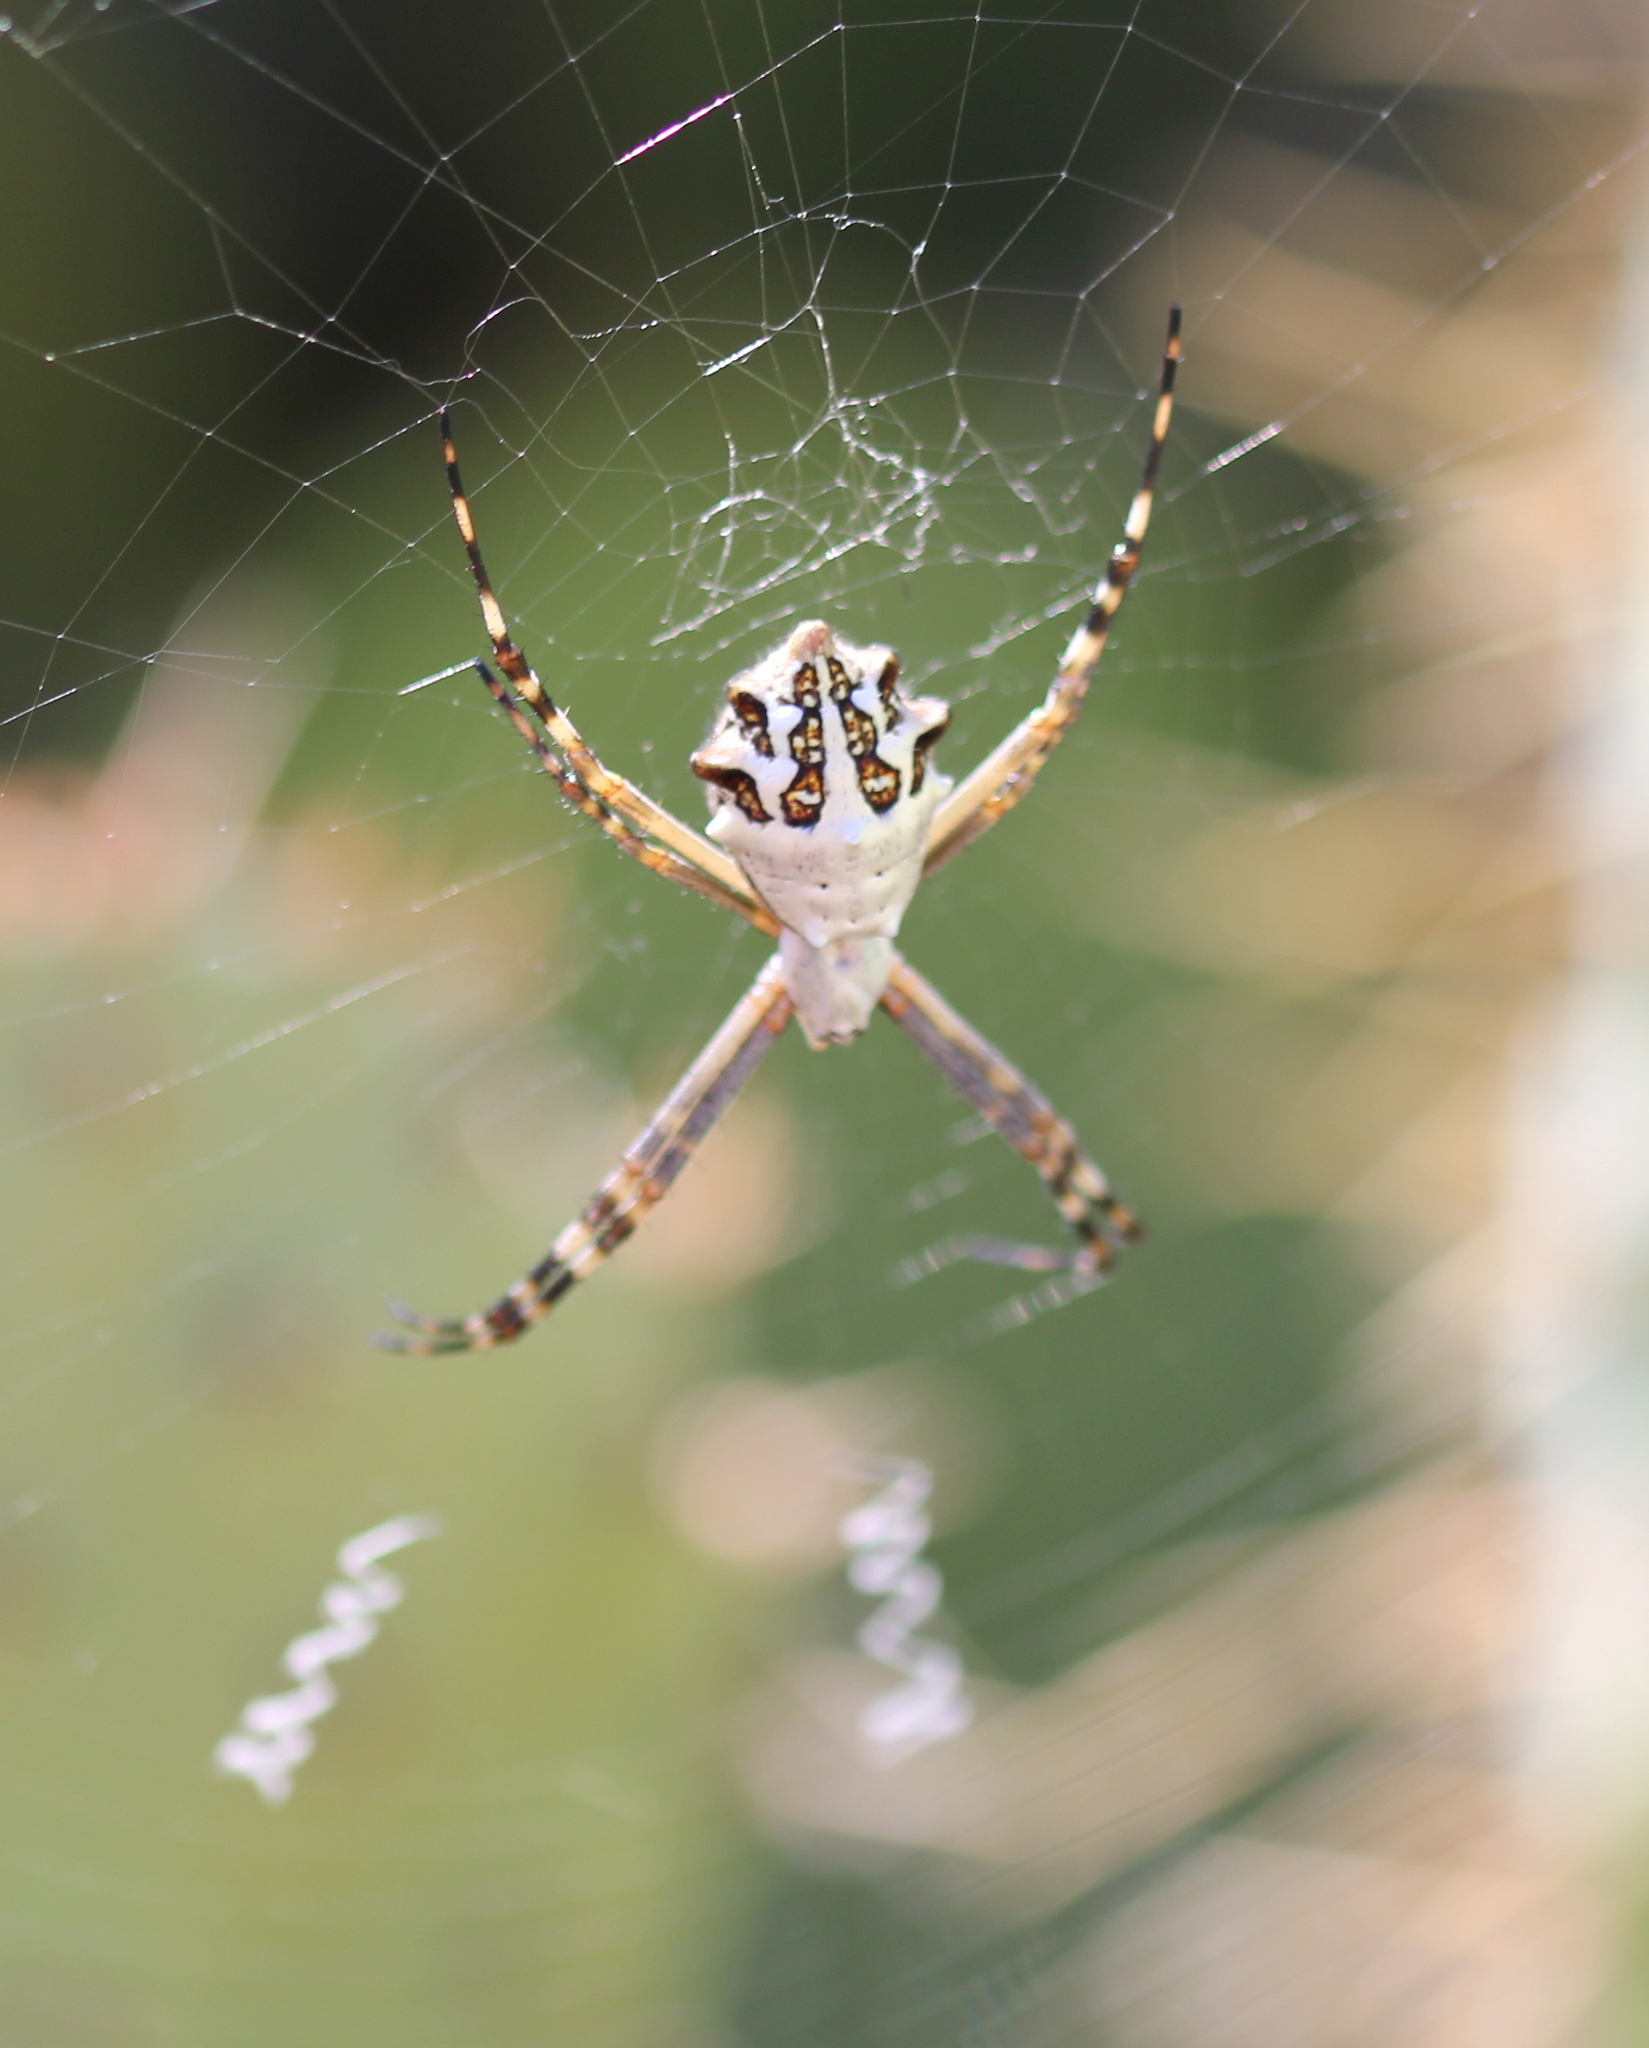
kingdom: Animalia
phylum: Arthropoda
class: Arachnida
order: Araneae
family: Araneidae
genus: Argiope
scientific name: Argiope argentata
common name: Orb weavers
